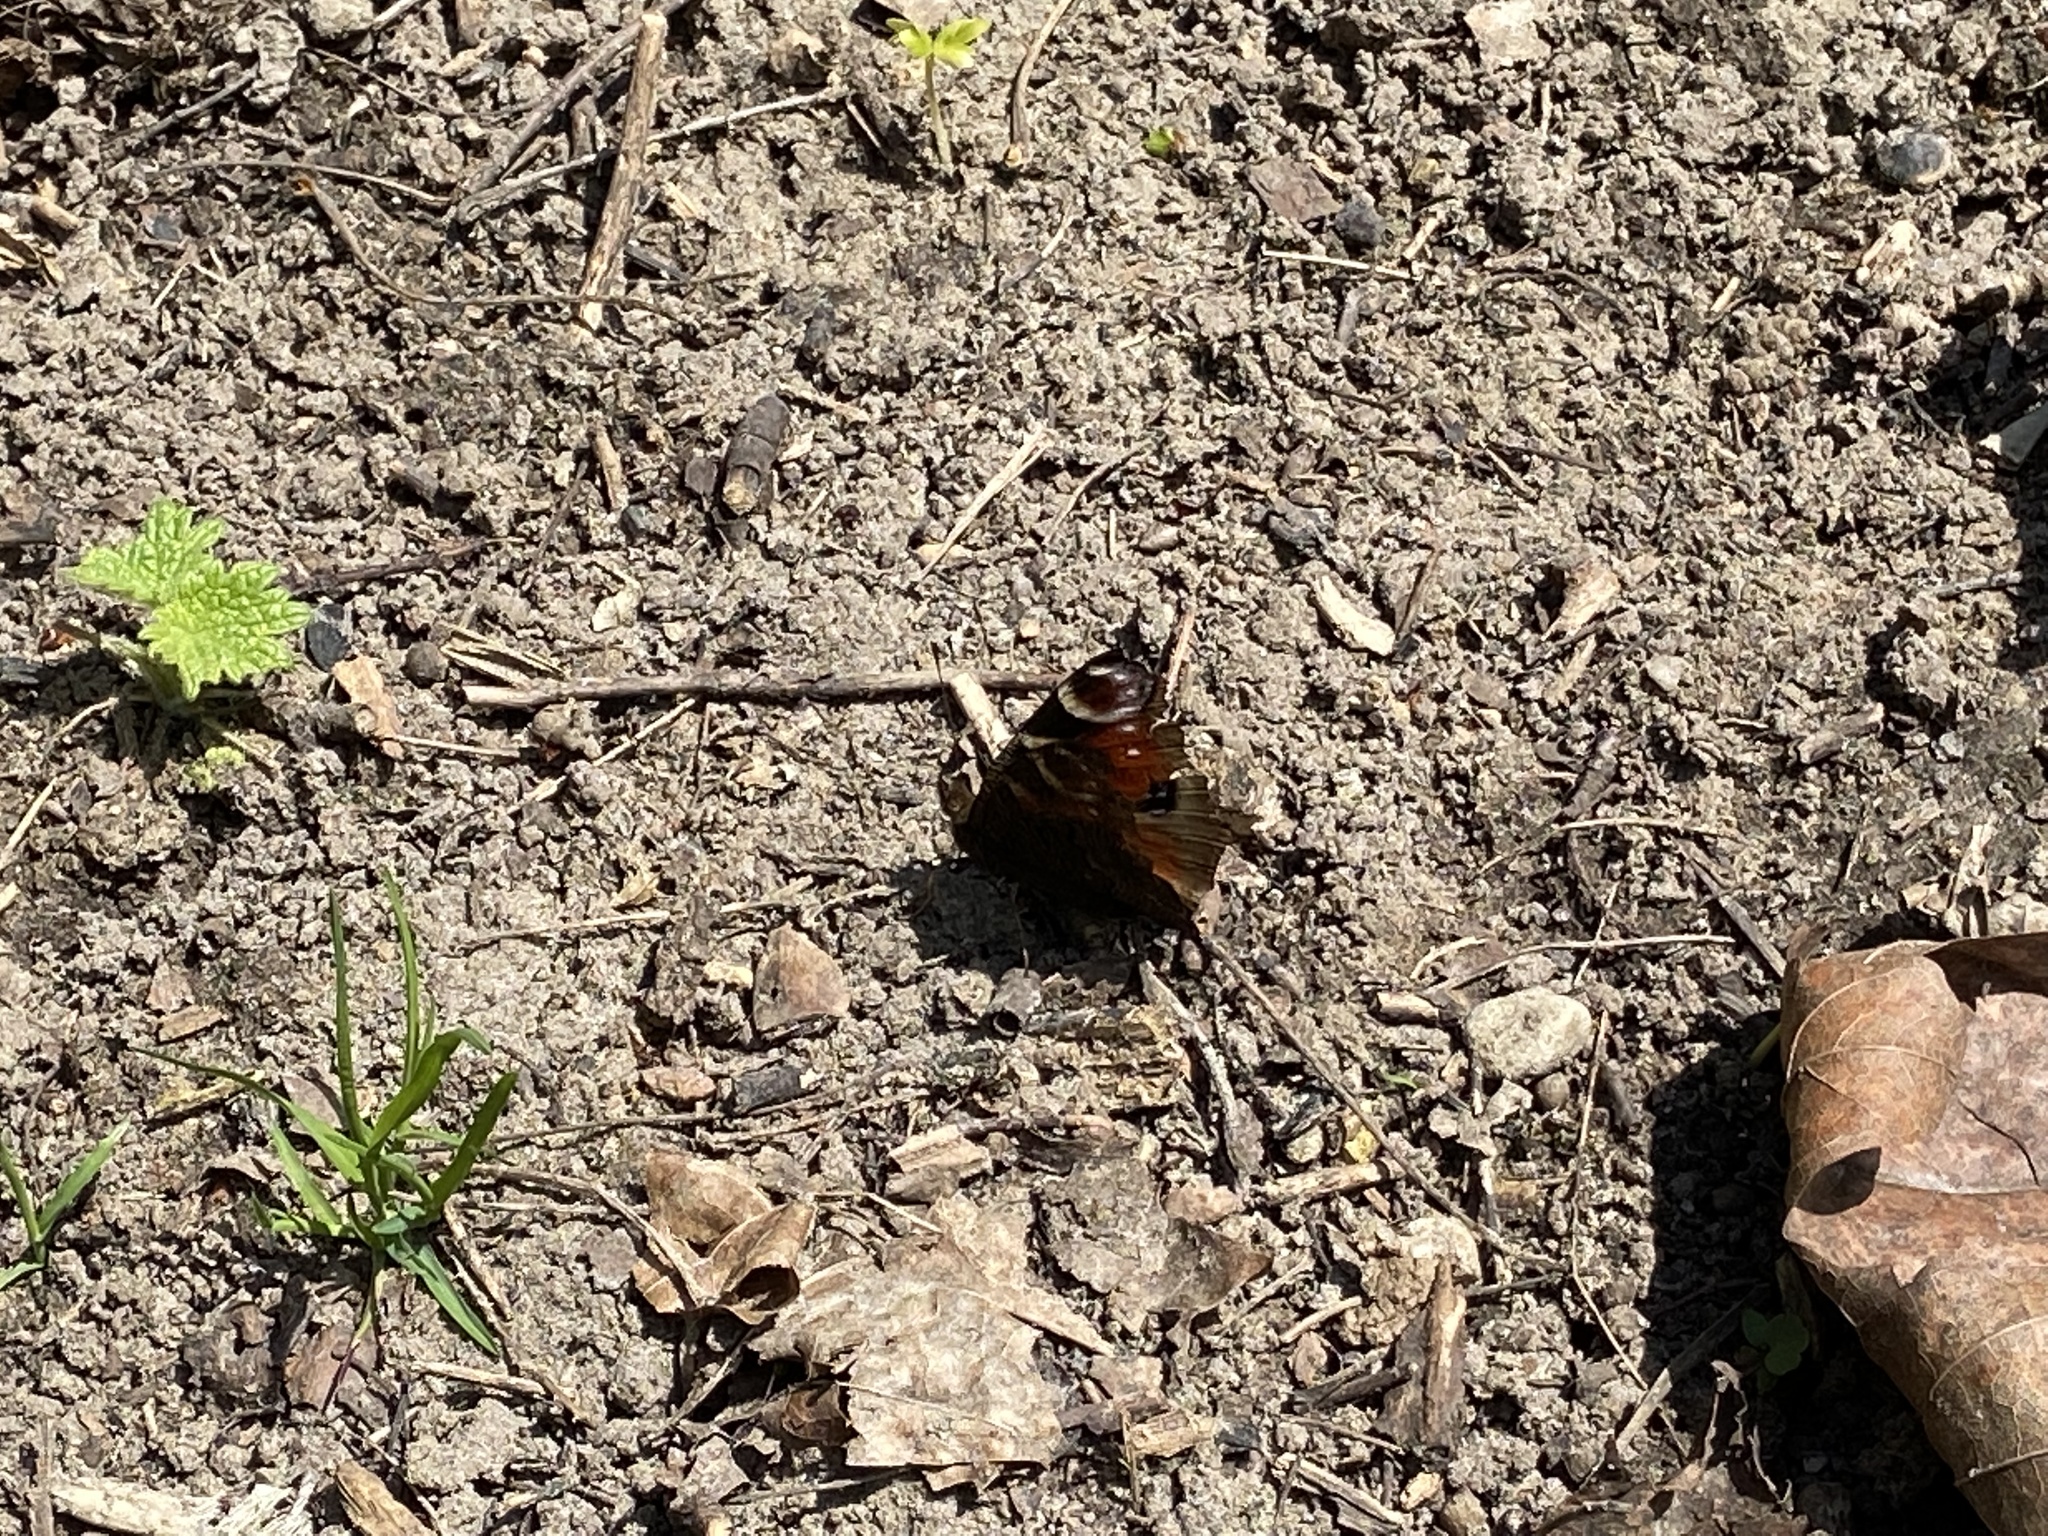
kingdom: Animalia
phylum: Arthropoda
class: Insecta
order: Lepidoptera
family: Nymphalidae
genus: Aglais
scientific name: Aglais io
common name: Peacock
